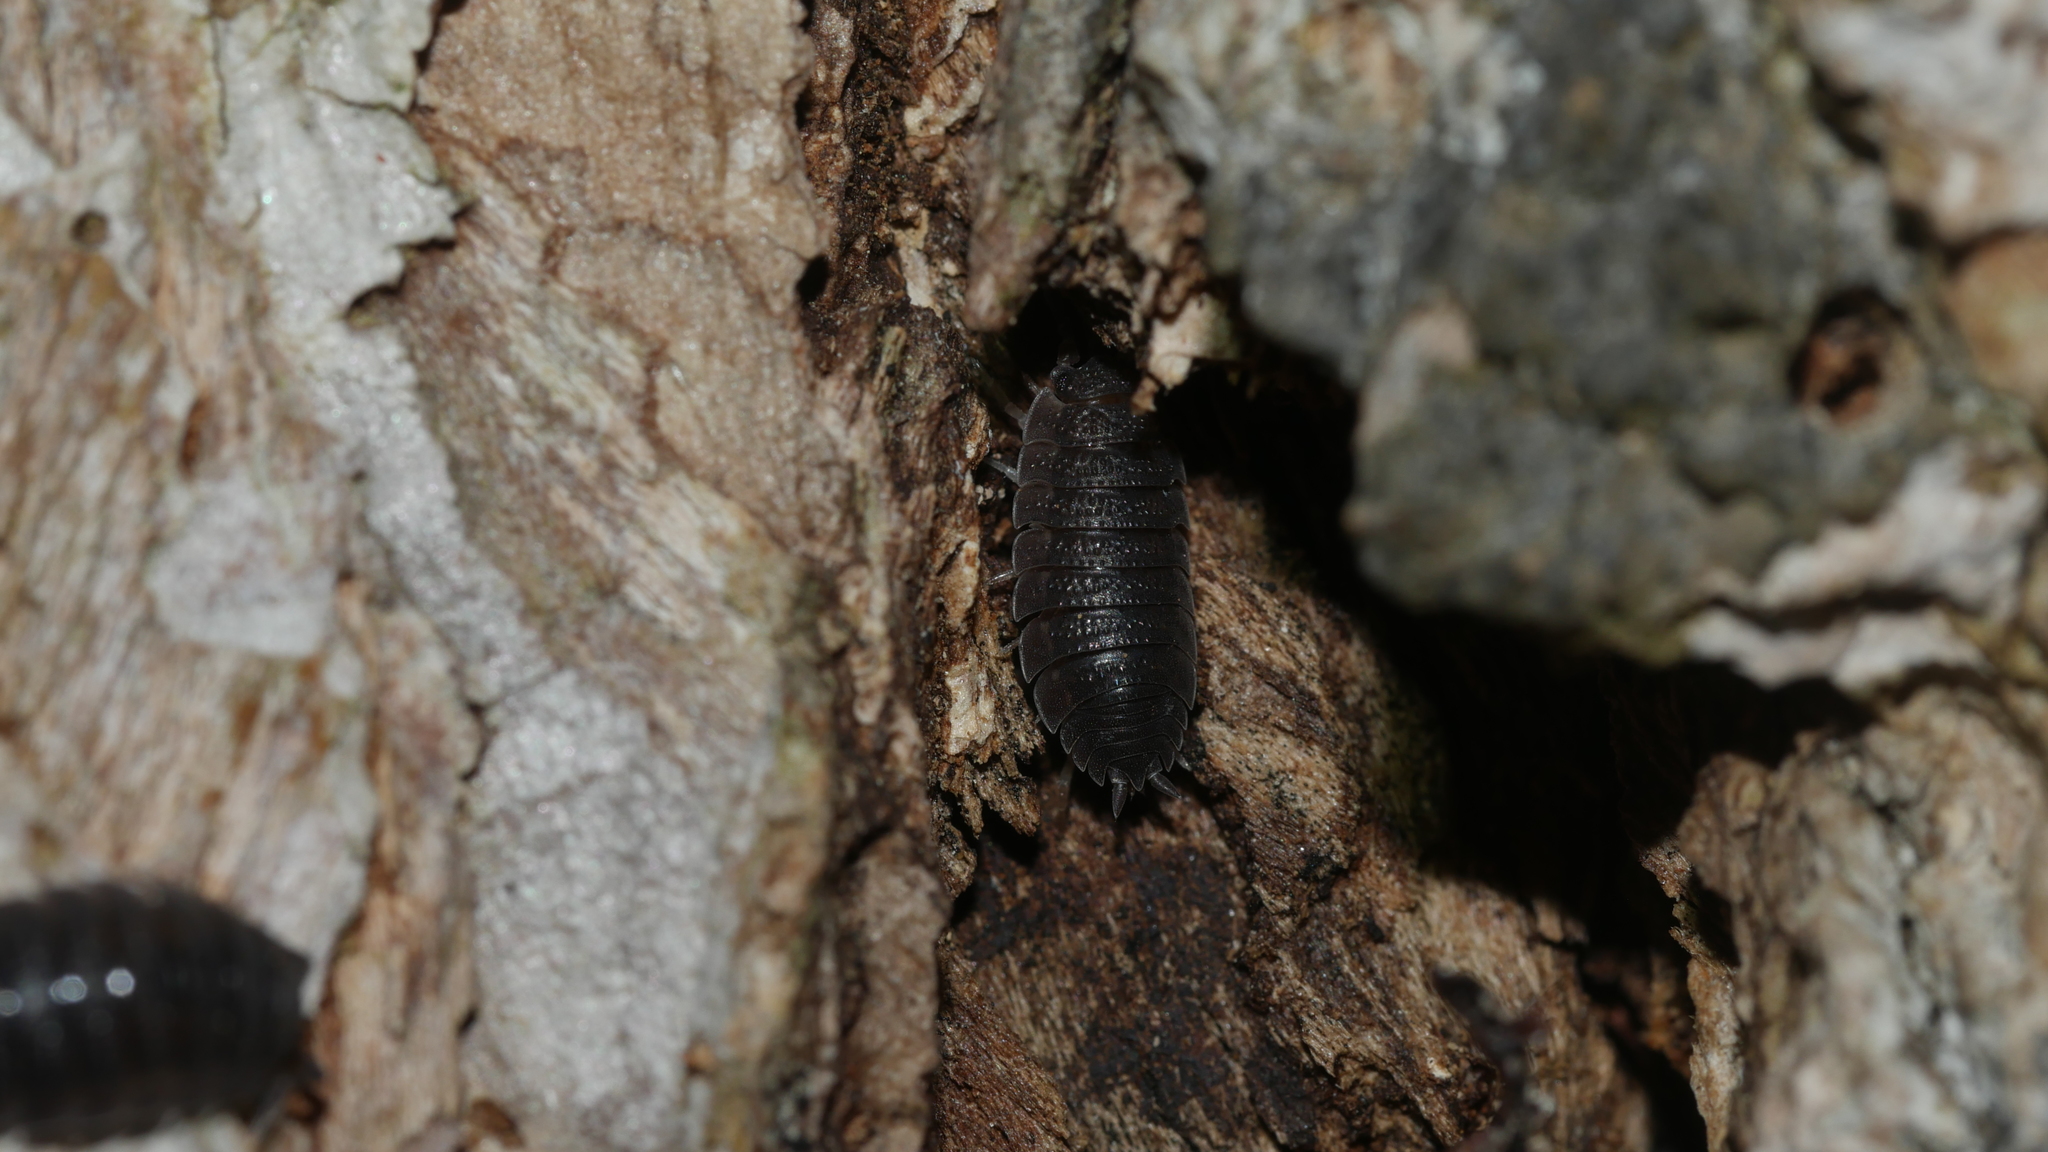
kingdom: Animalia
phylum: Arthropoda
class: Malacostraca
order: Isopoda
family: Porcellionidae
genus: Porcellio
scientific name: Porcellio scaber
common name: Common rough woodlouse
